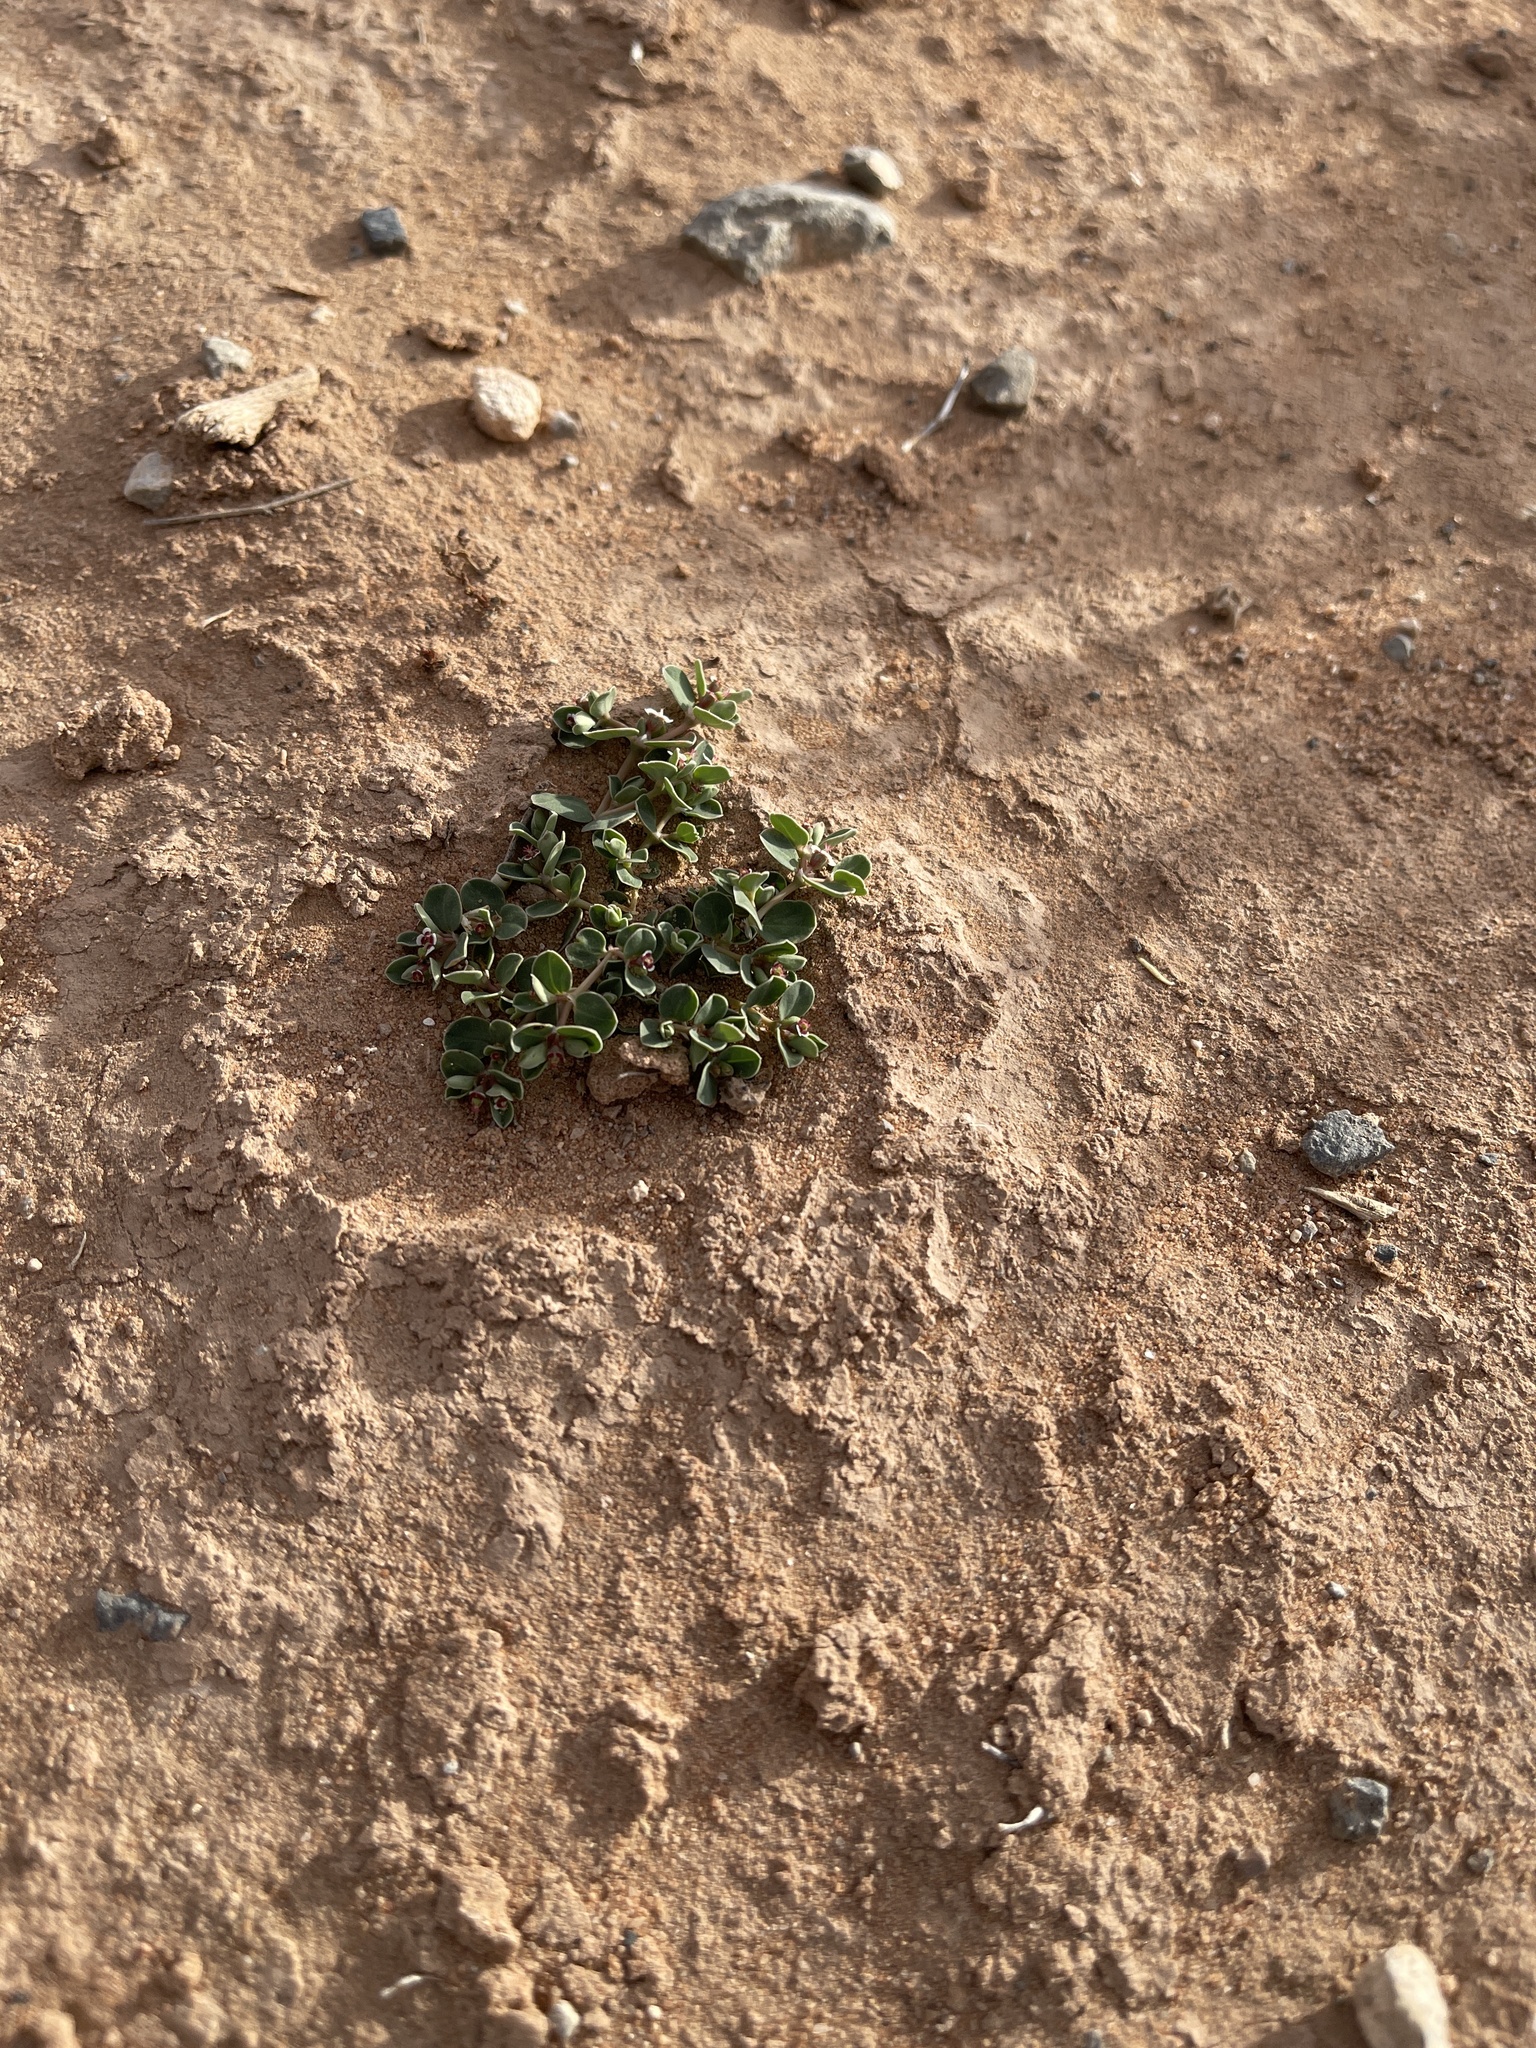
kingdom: Plantae
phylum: Tracheophyta
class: Magnoliopsida
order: Malpighiales
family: Euphorbiaceae
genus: Euphorbia
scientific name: Euphorbia albomarginata
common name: Whitemargin sandmat
